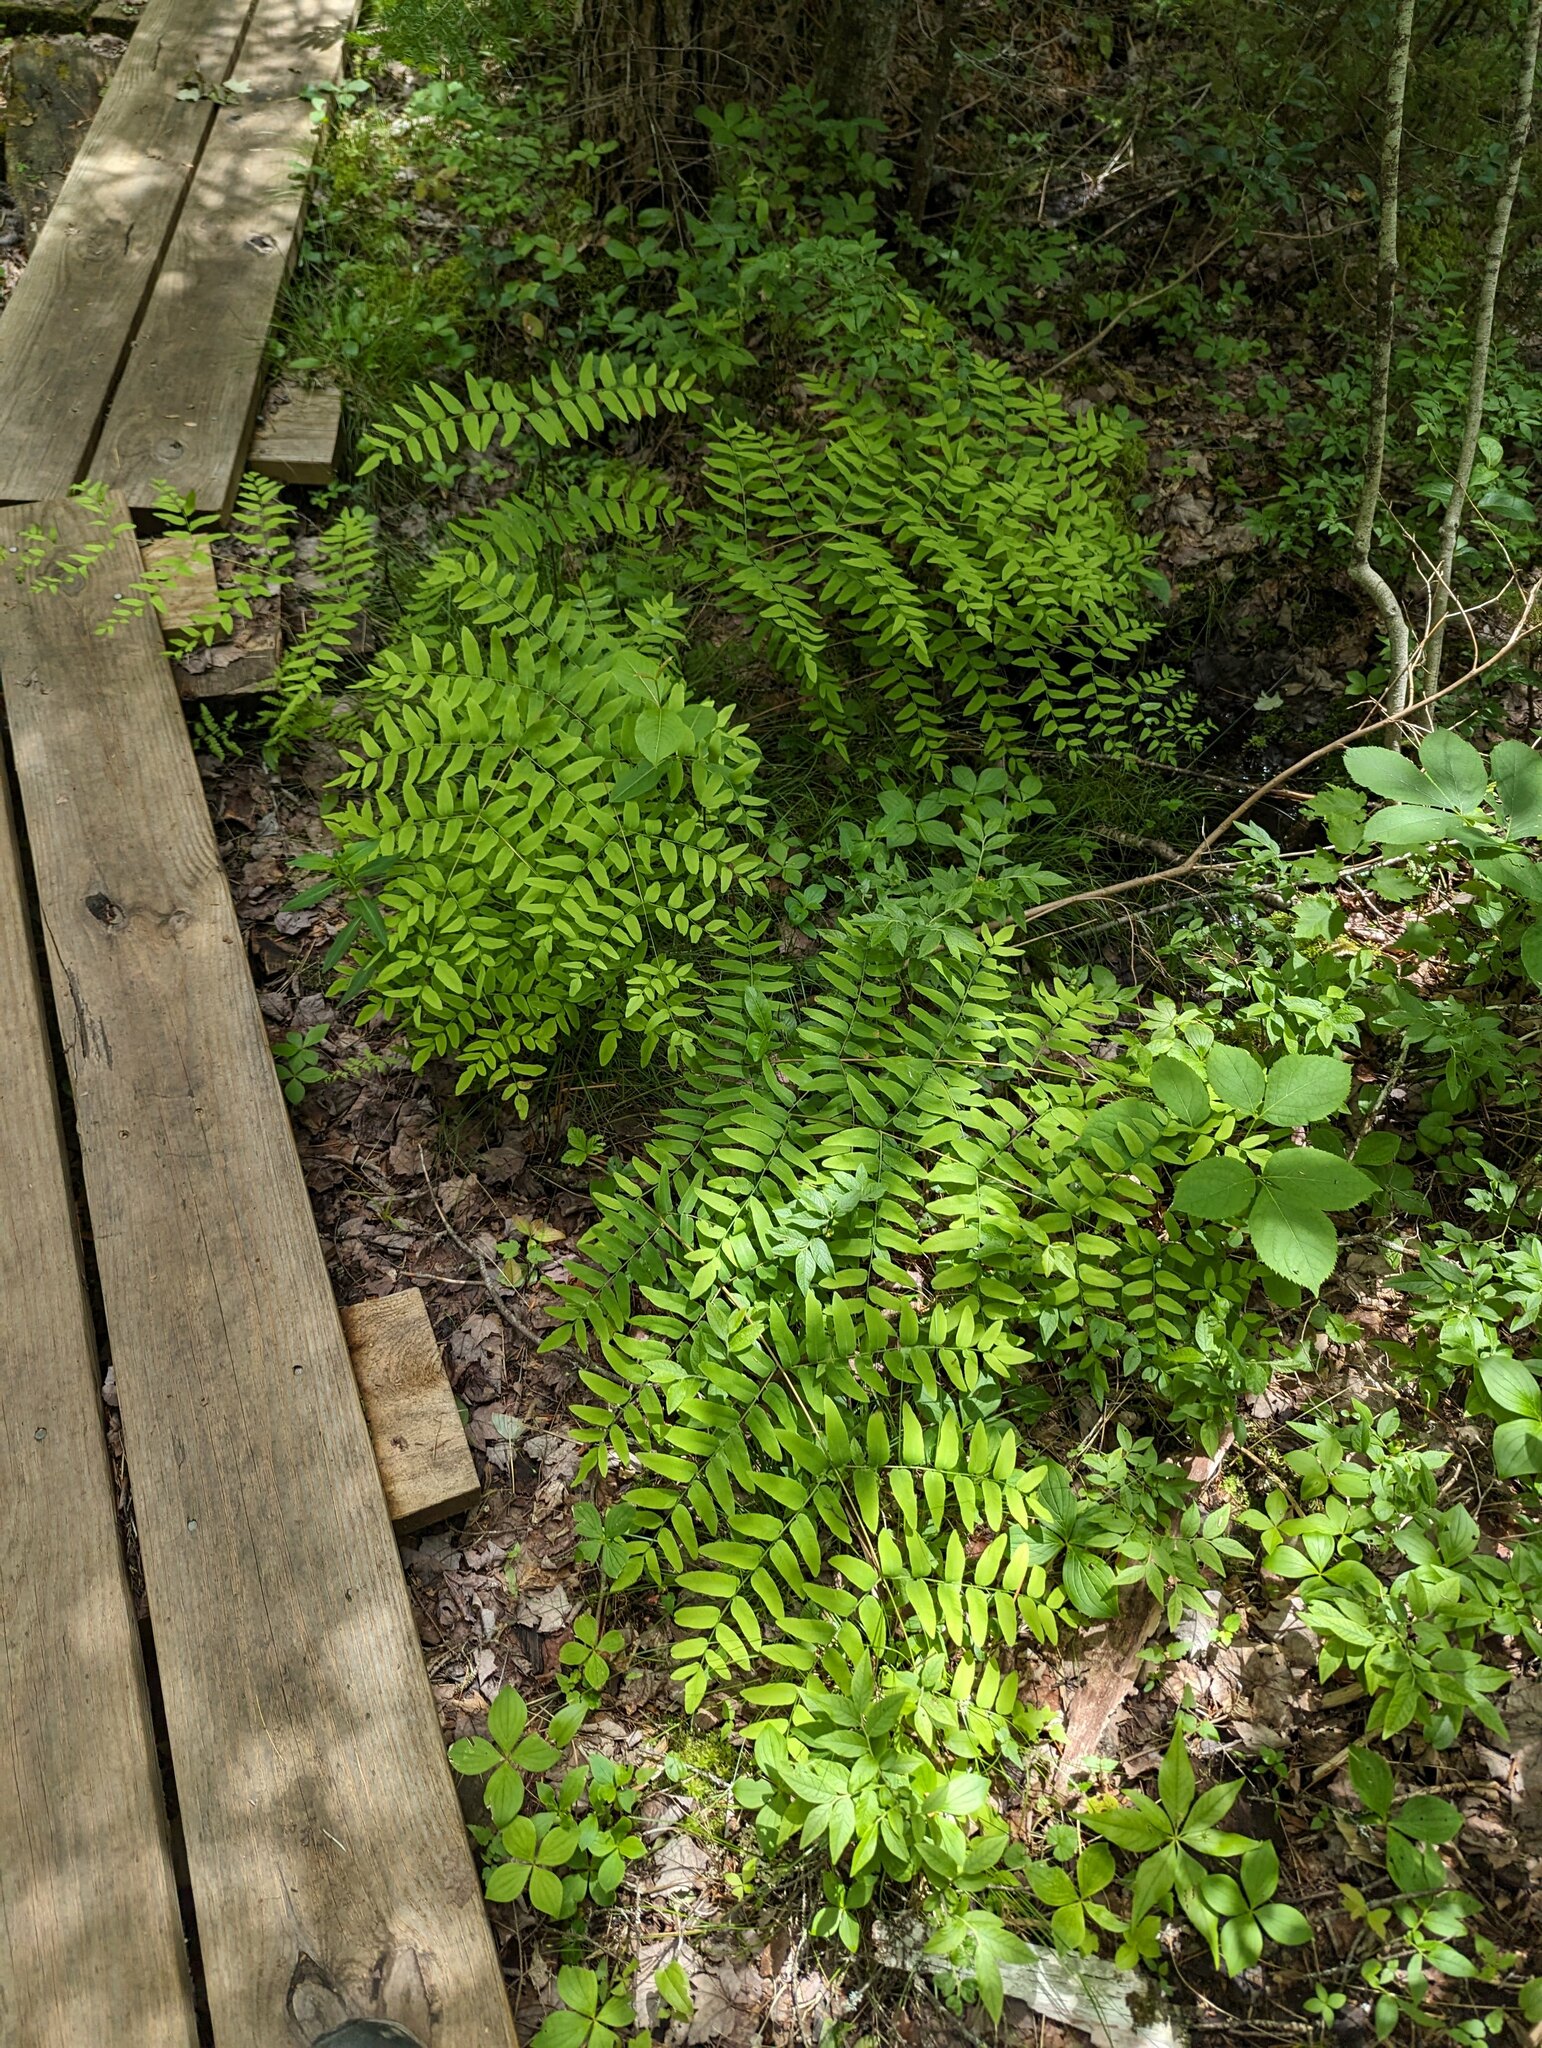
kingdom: Plantae
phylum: Tracheophyta
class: Polypodiopsida
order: Osmundales
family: Osmundaceae
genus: Osmunda
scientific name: Osmunda spectabilis
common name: American royal fern
